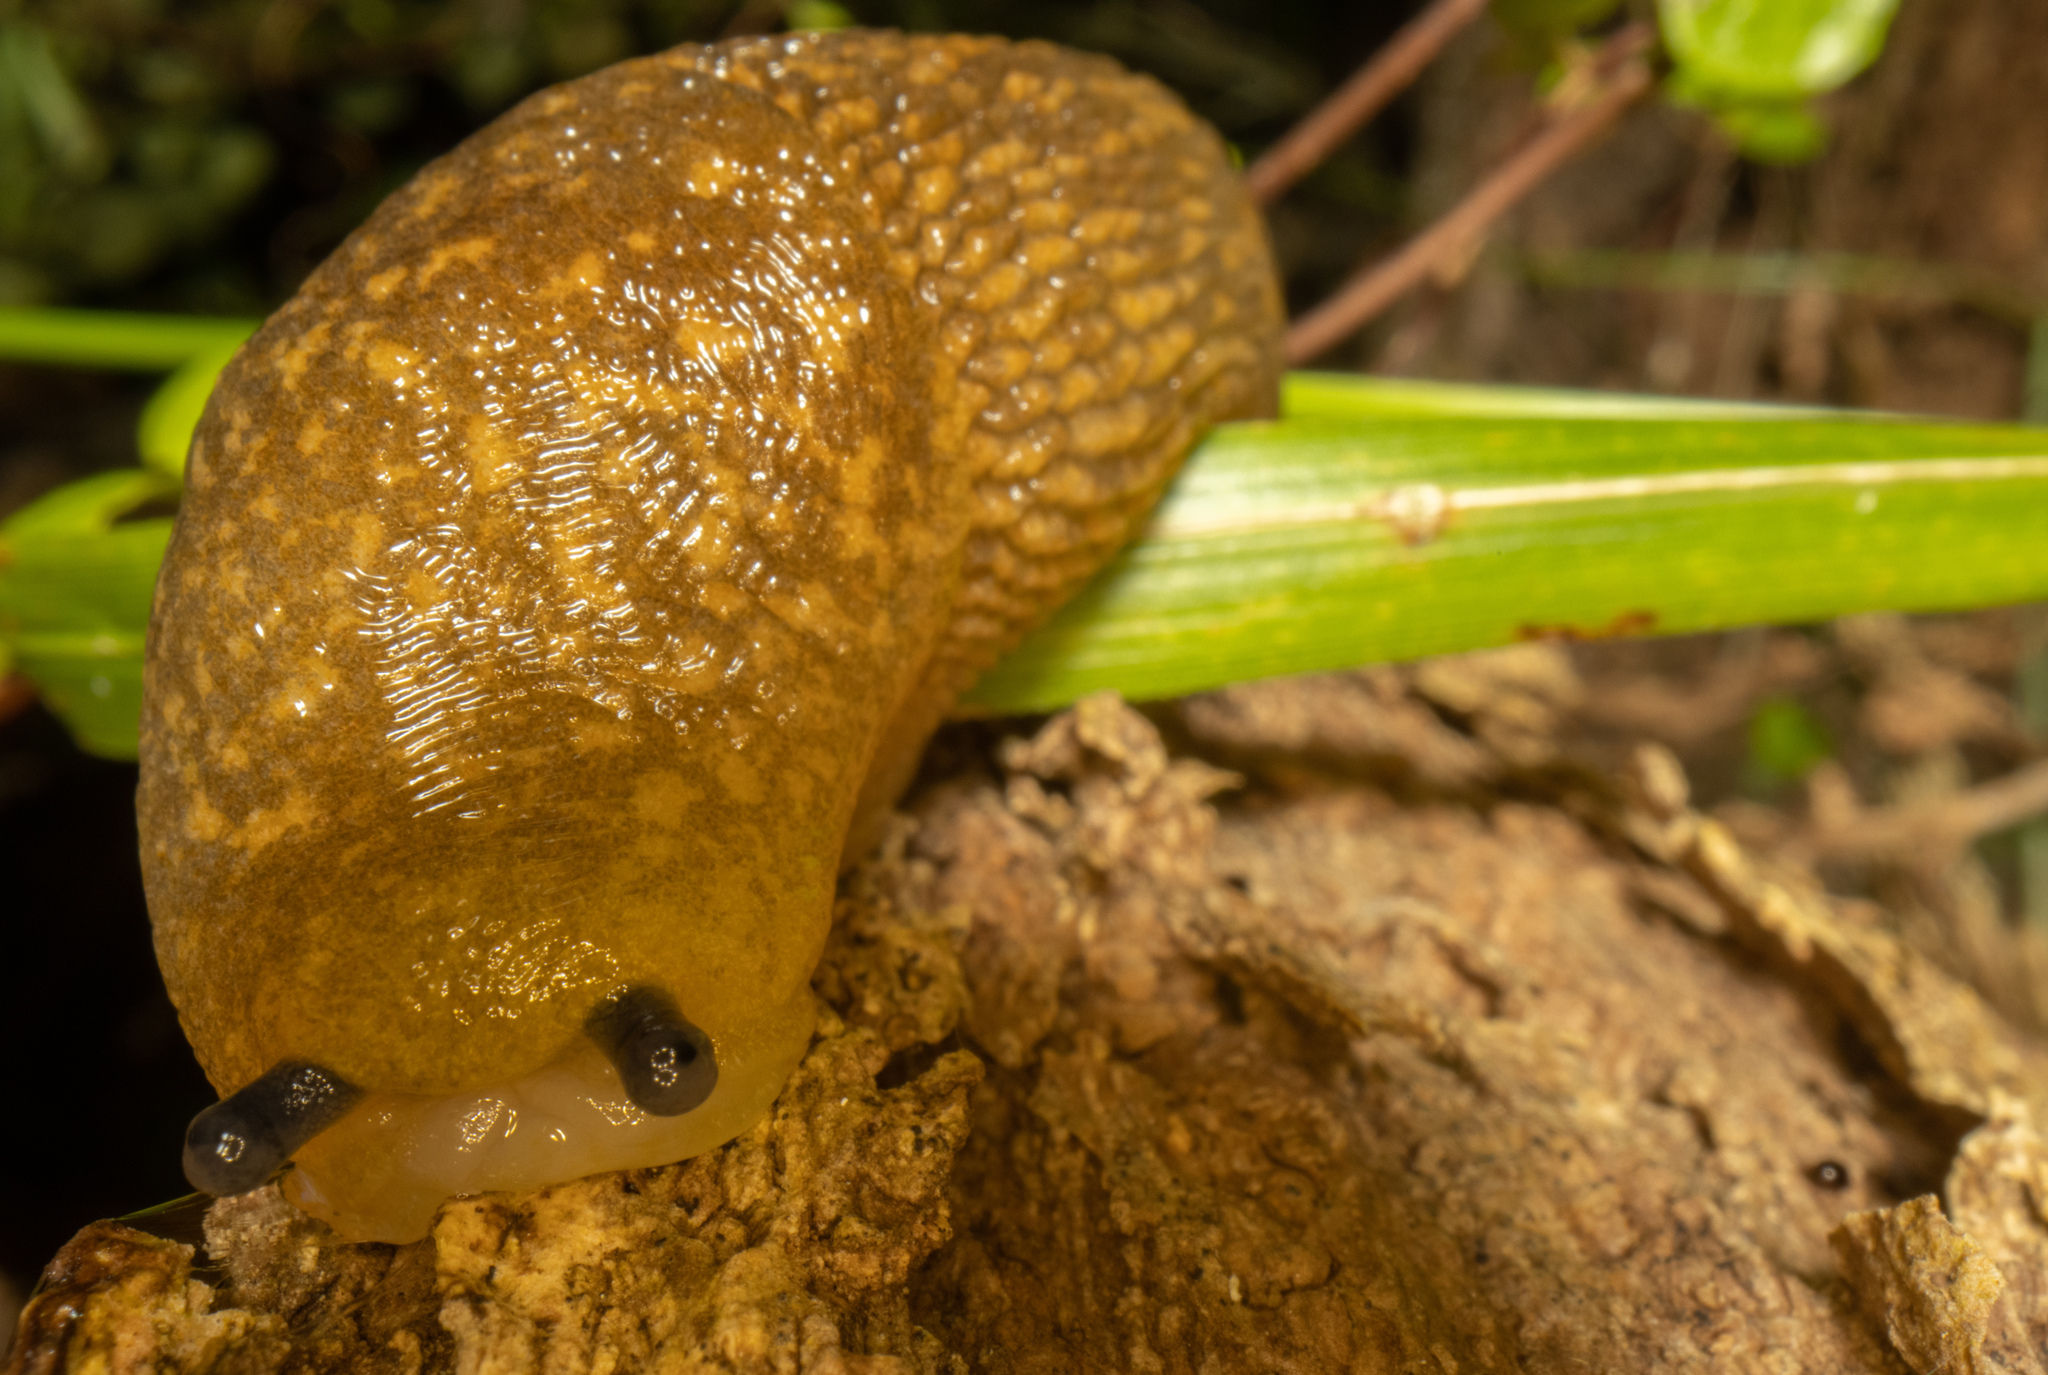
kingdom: Animalia
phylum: Mollusca
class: Gastropoda
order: Stylommatophora
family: Limacidae
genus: Limacus
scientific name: Limacus flavus
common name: Yellow gardenslug
